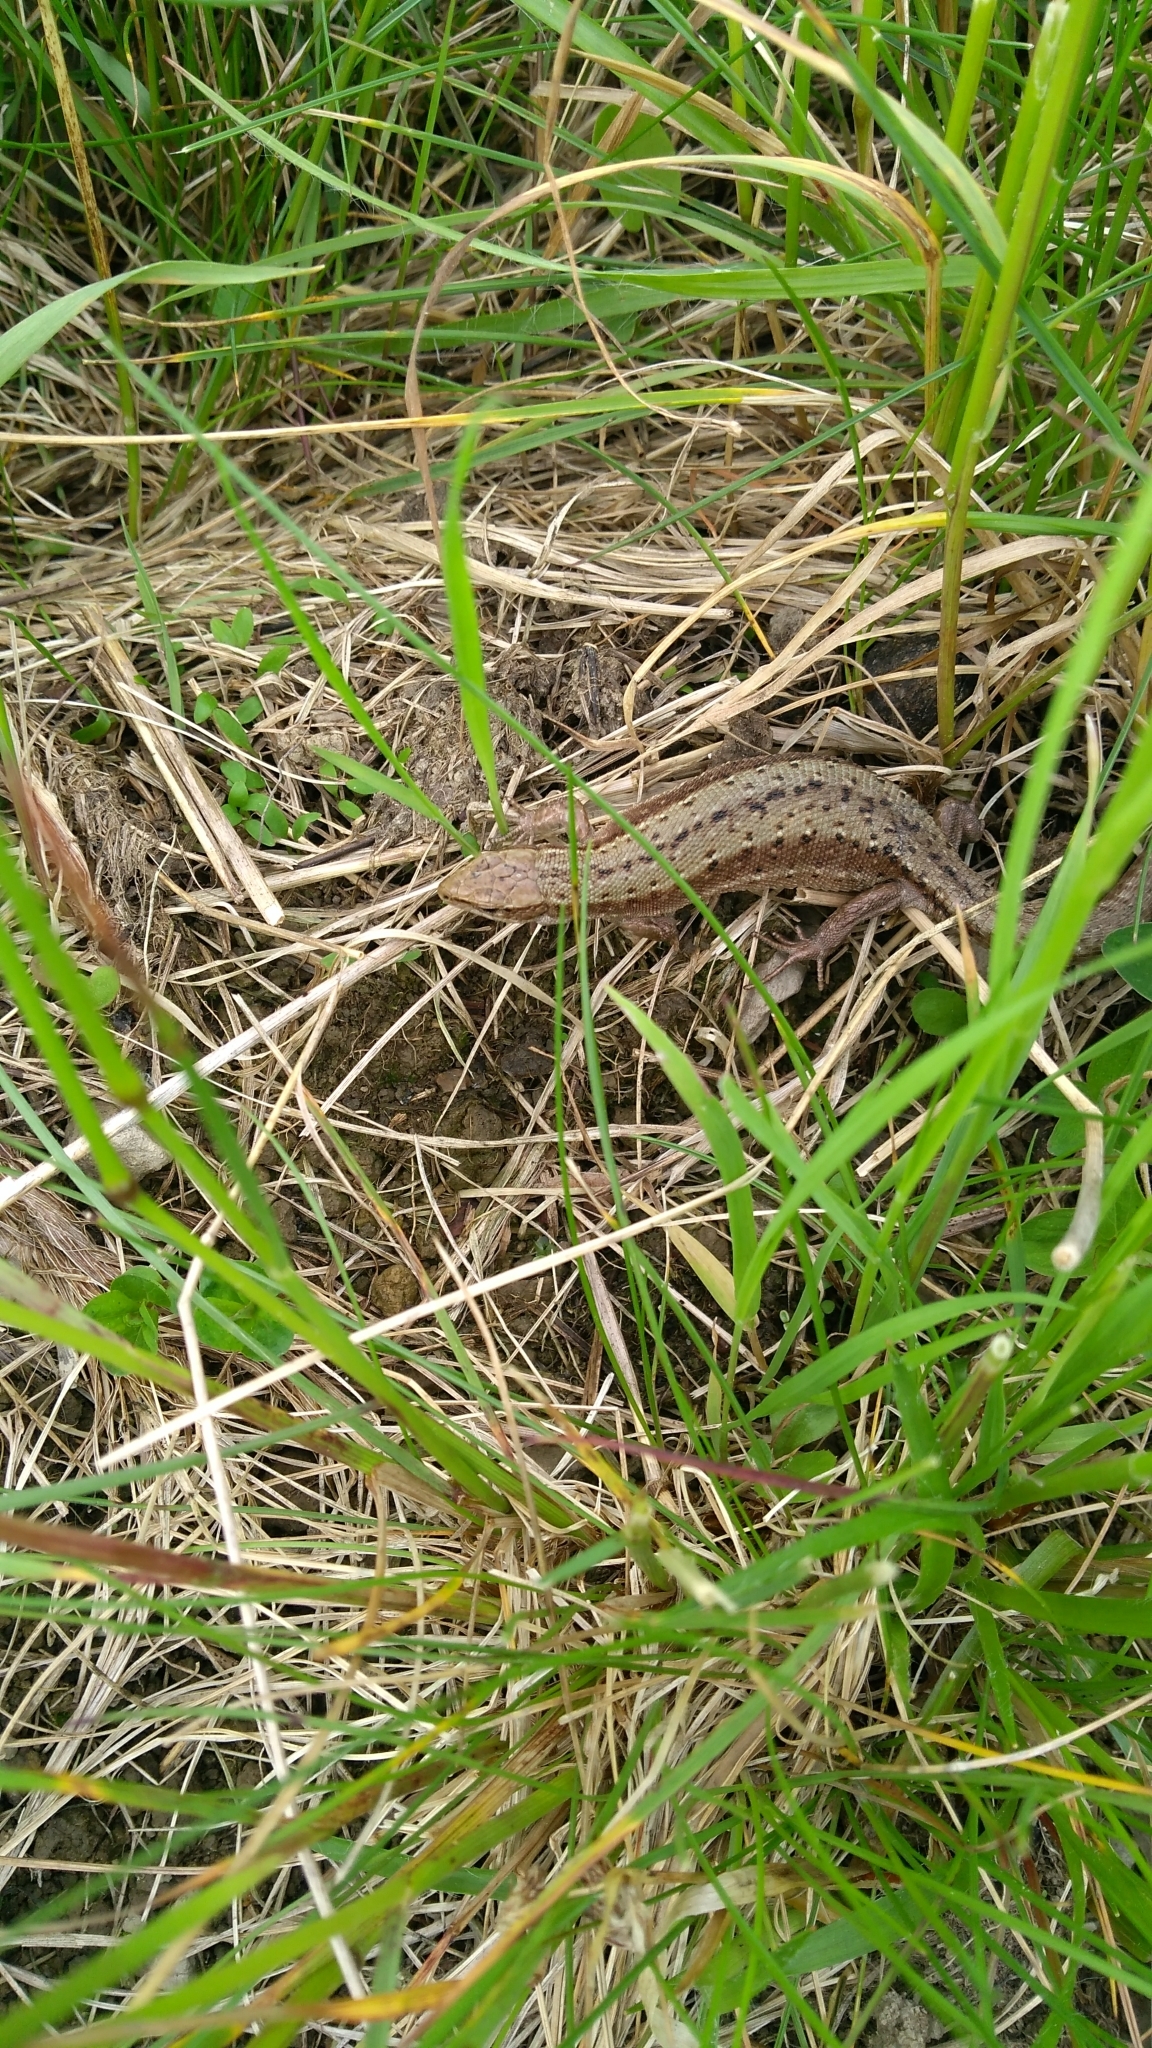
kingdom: Animalia
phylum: Chordata
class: Squamata
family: Lacertidae
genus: Zootoca
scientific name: Zootoca vivipara
